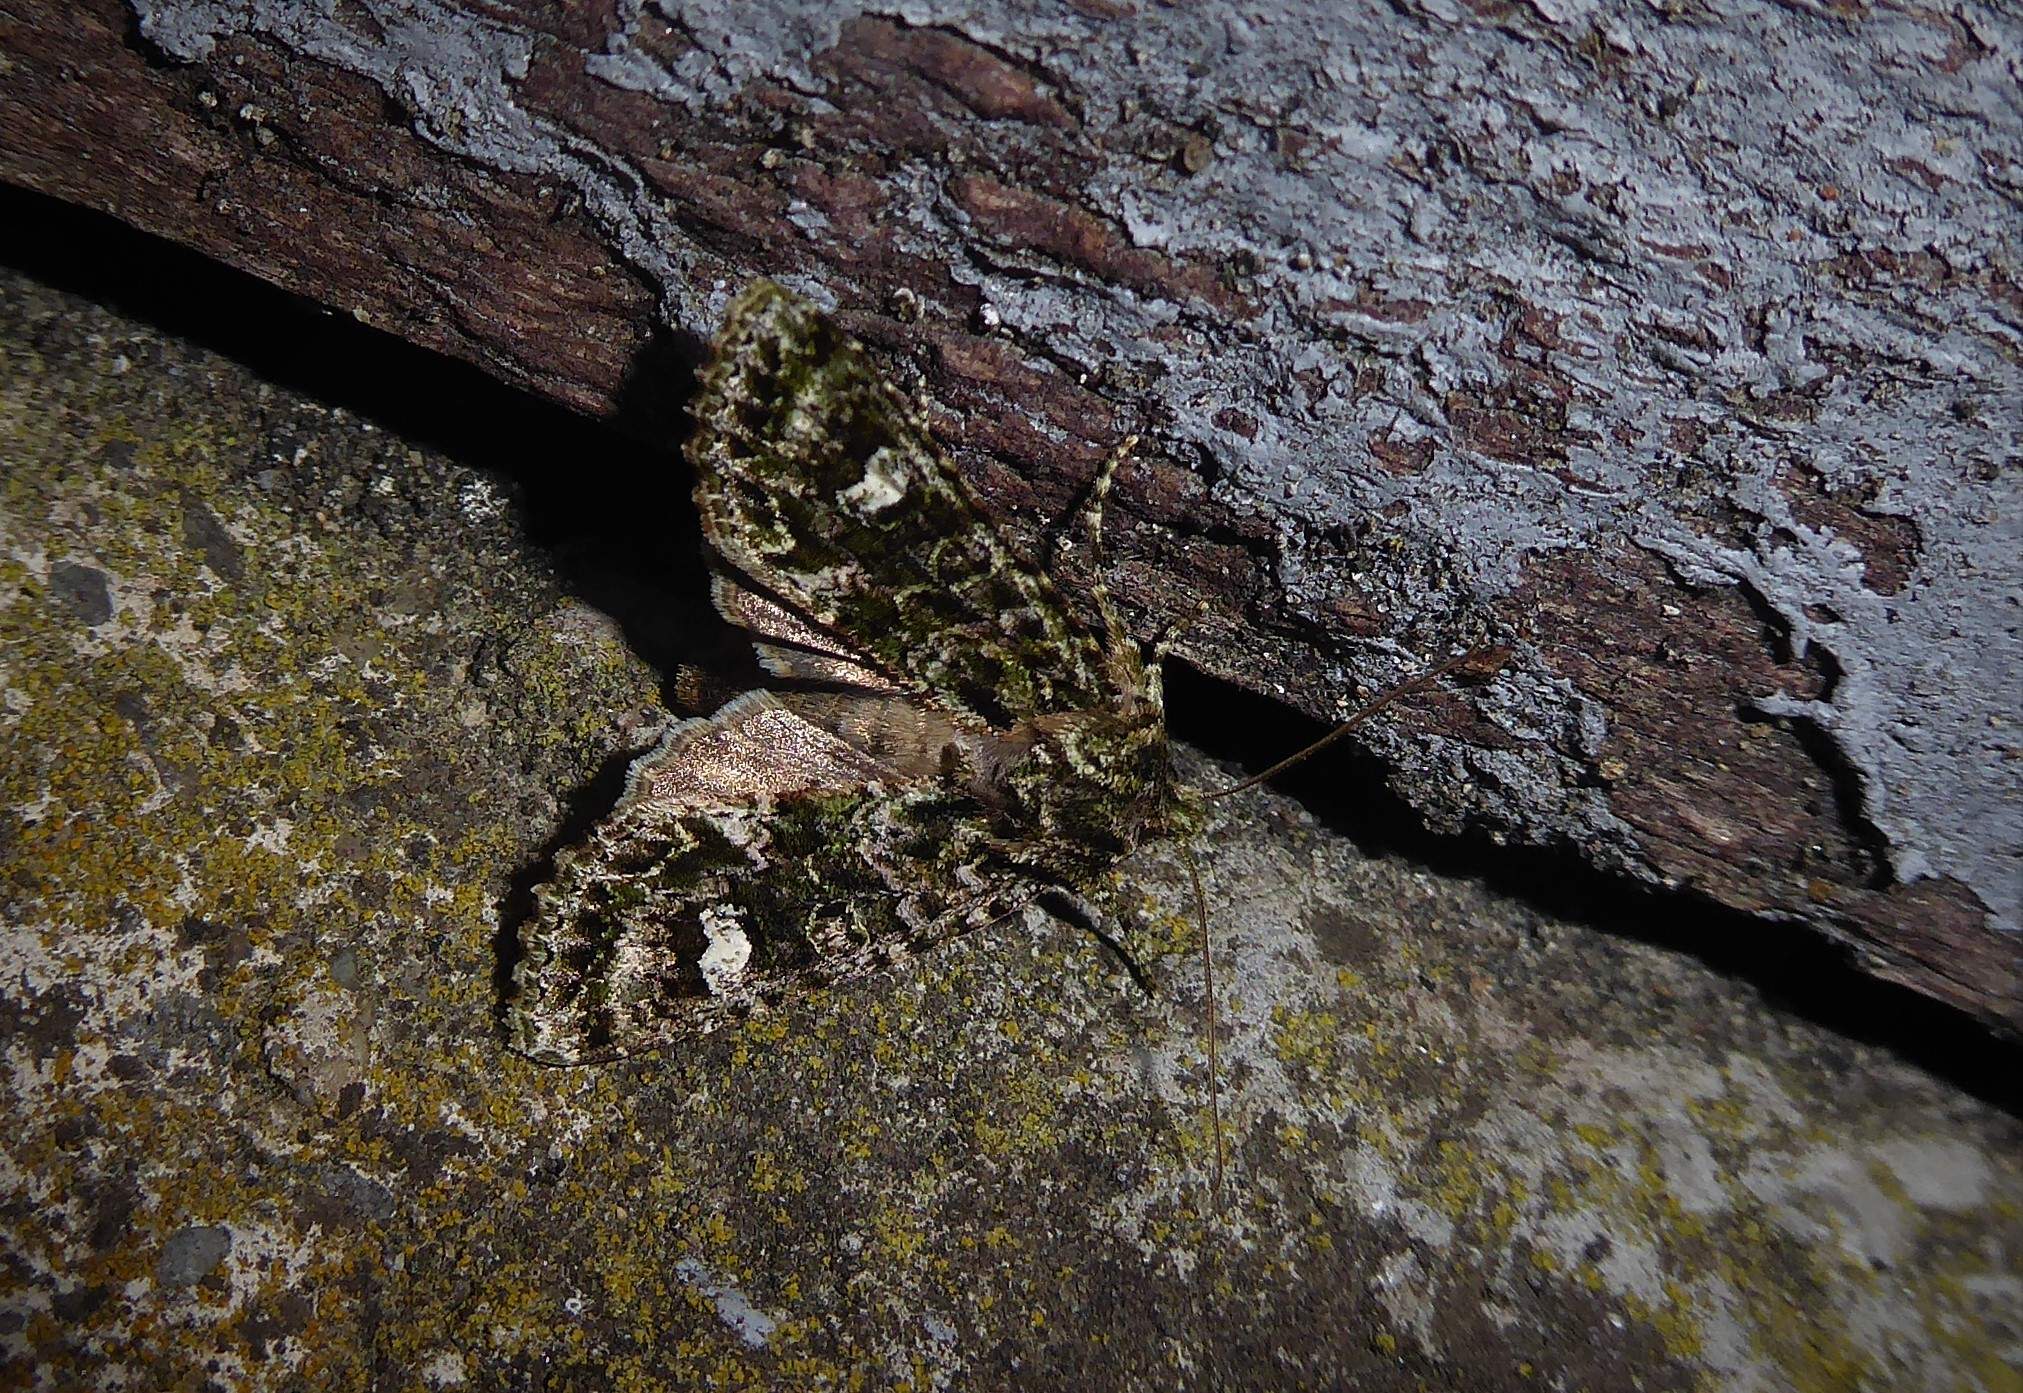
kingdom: Animalia
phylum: Arthropoda
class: Insecta
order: Lepidoptera
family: Noctuidae
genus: Ichneutica
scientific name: Ichneutica
